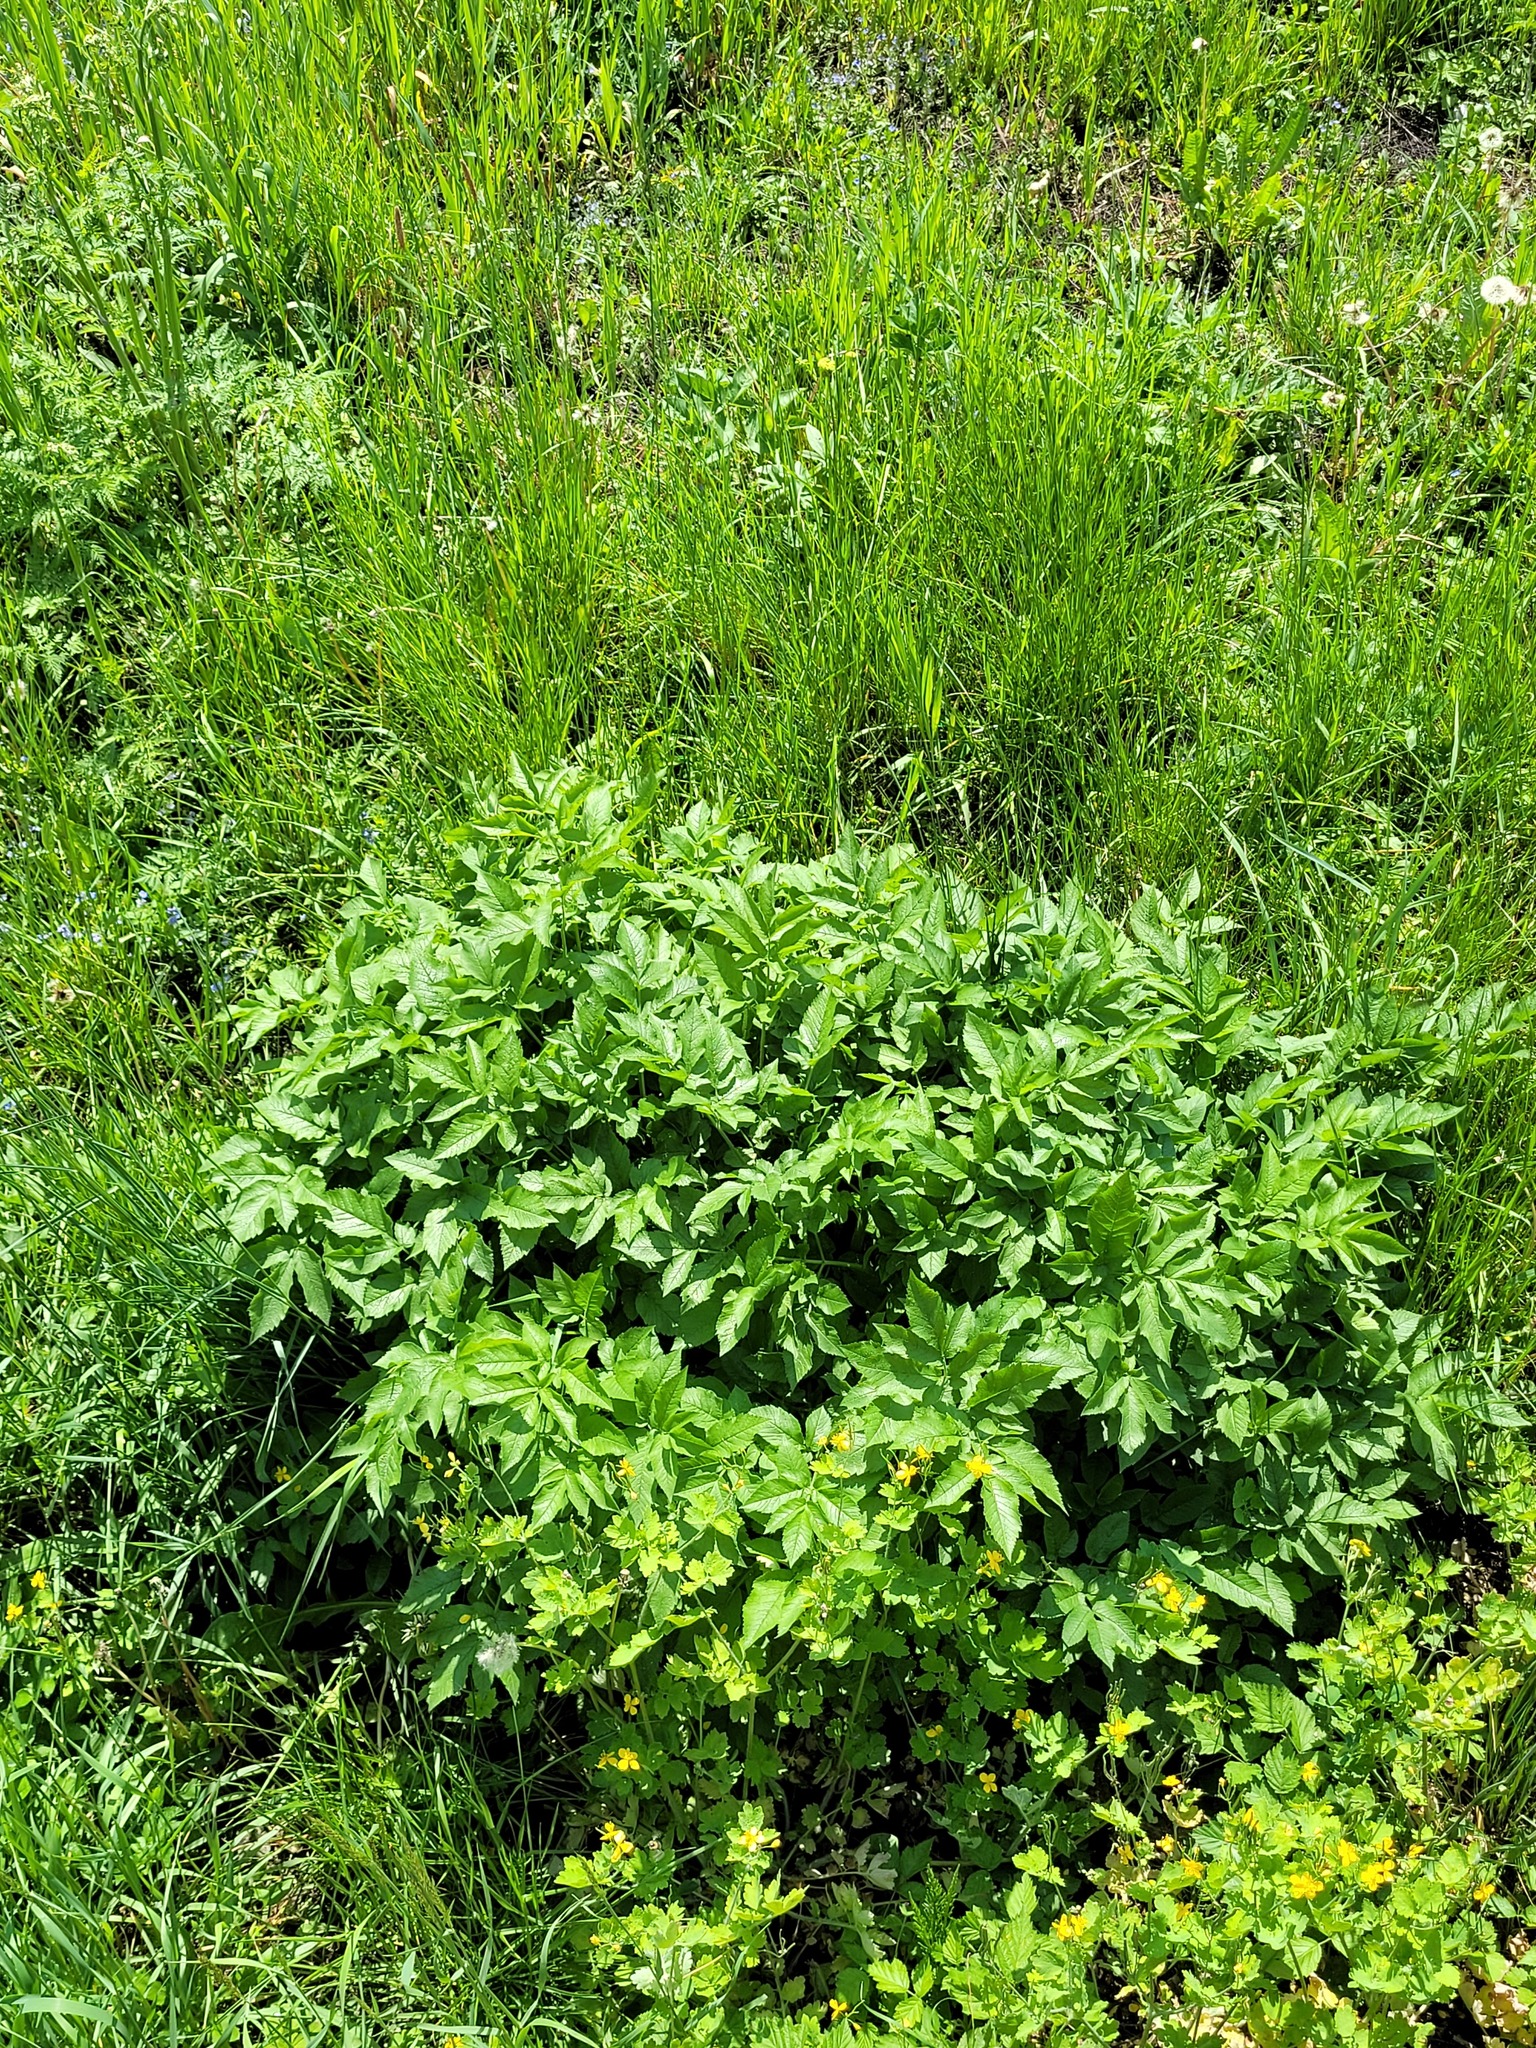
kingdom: Plantae
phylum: Tracheophyta
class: Magnoliopsida
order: Apiales
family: Apiaceae
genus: Chaerophyllum
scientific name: Chaerophyllum aromaticum
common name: Broadleaf chervil
